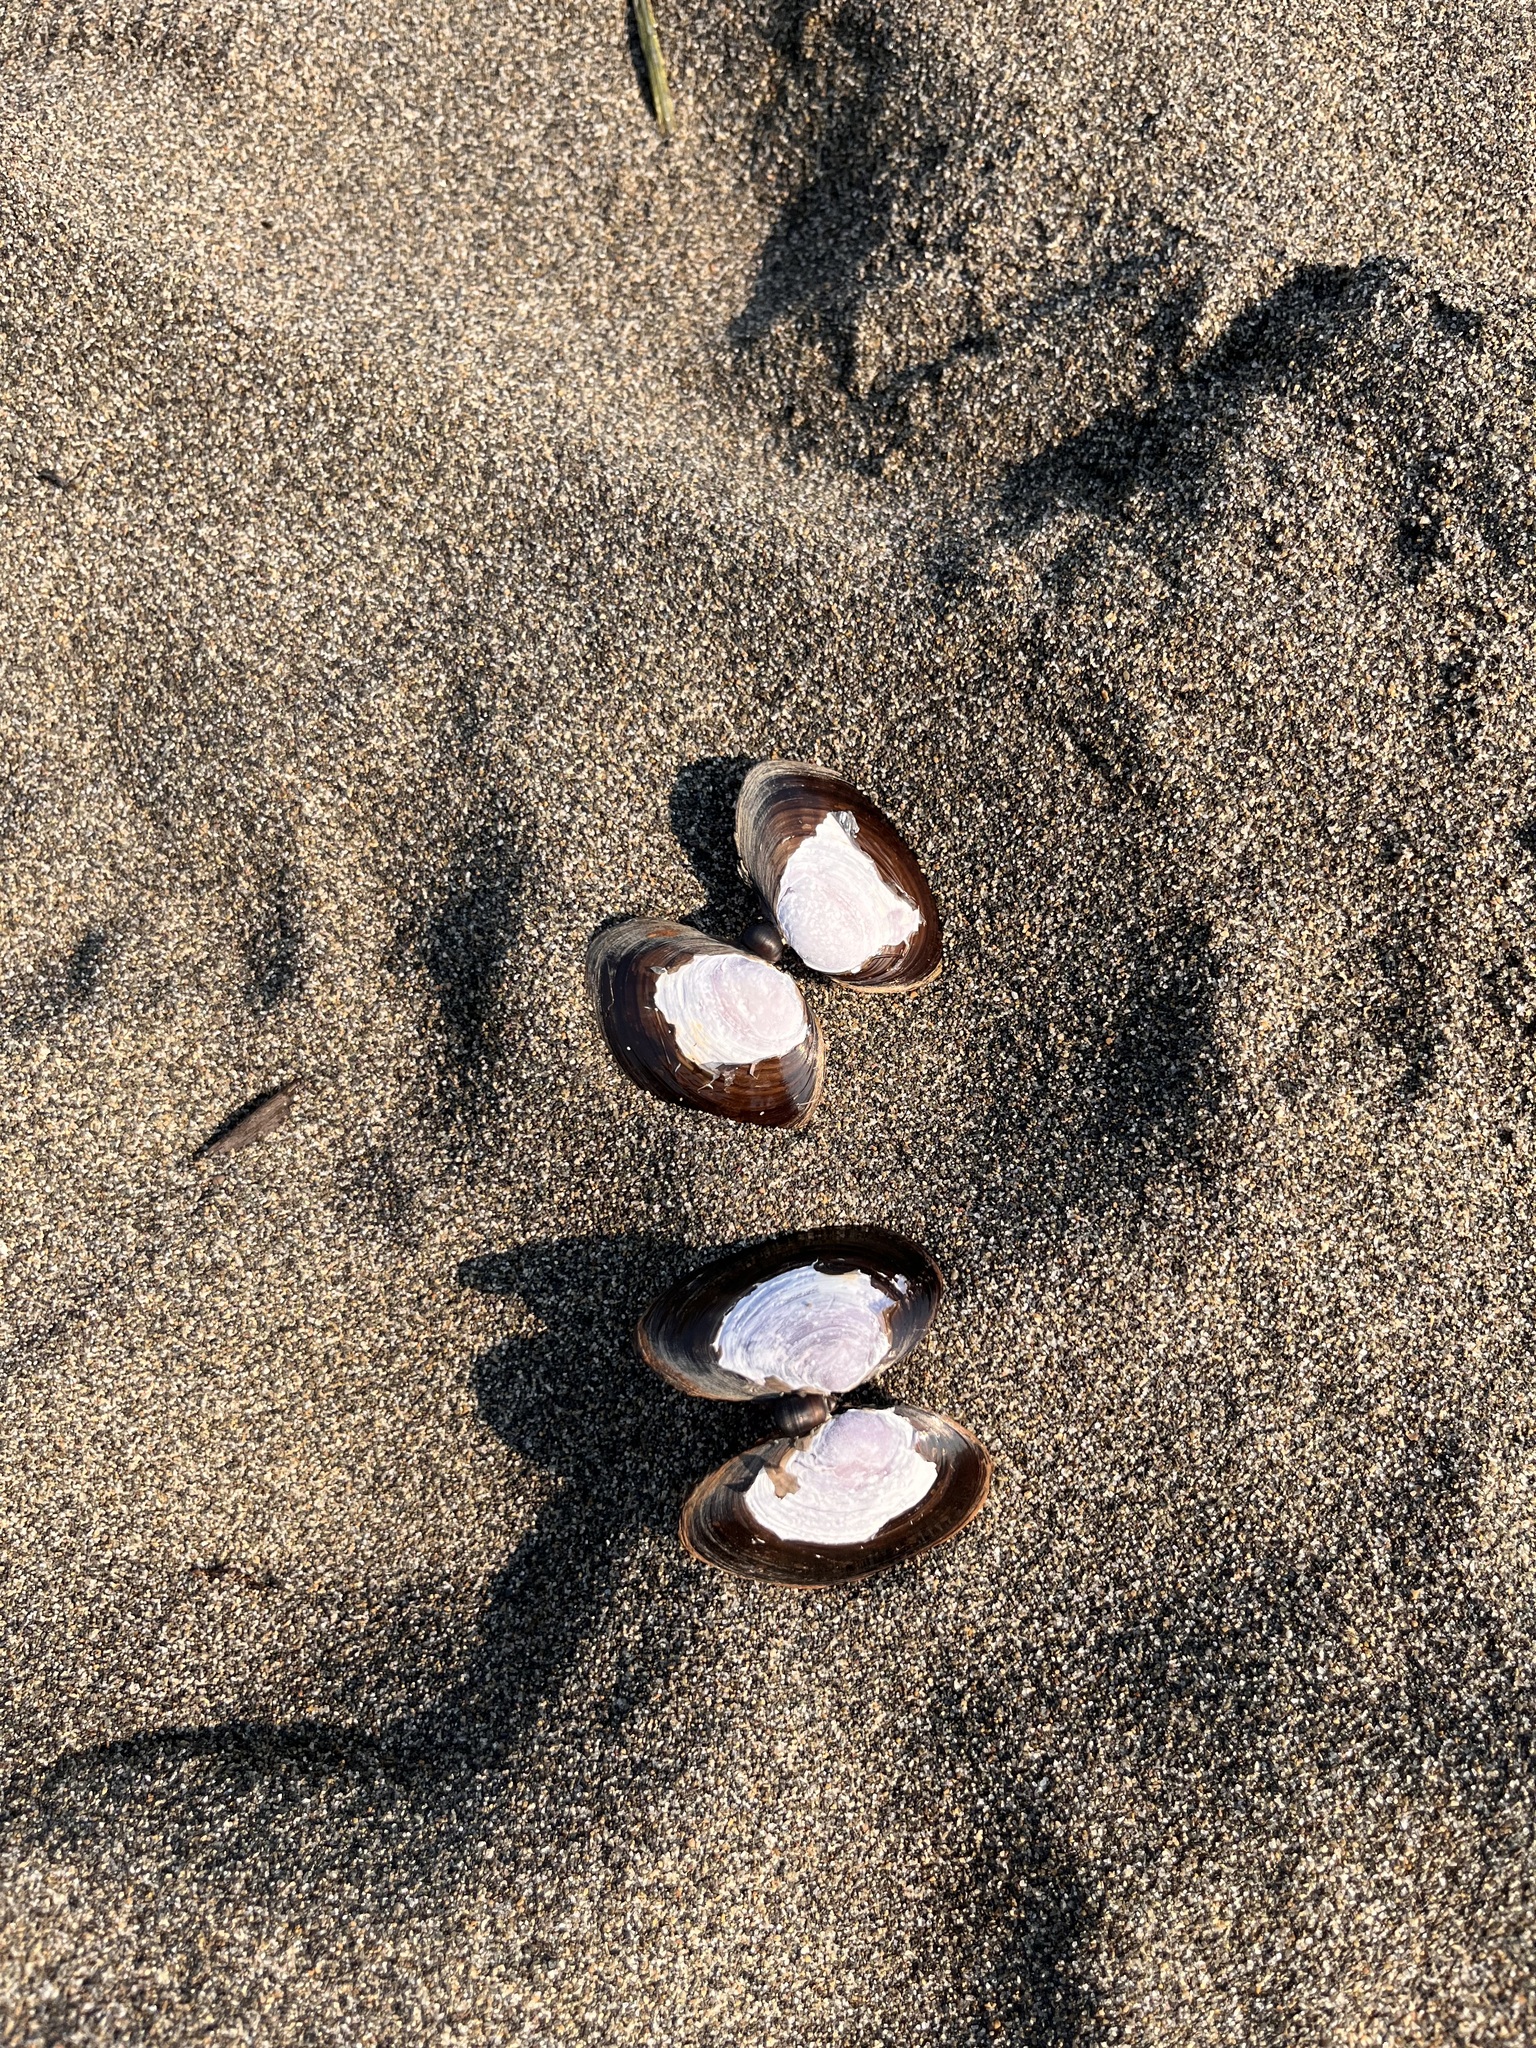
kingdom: Animalia
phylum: Mollusca
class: Bivalvia
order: Cardiida
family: Psammobiidae
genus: Nuttallia
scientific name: Nuttallia obscurata
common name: Purple mahogany-clam
